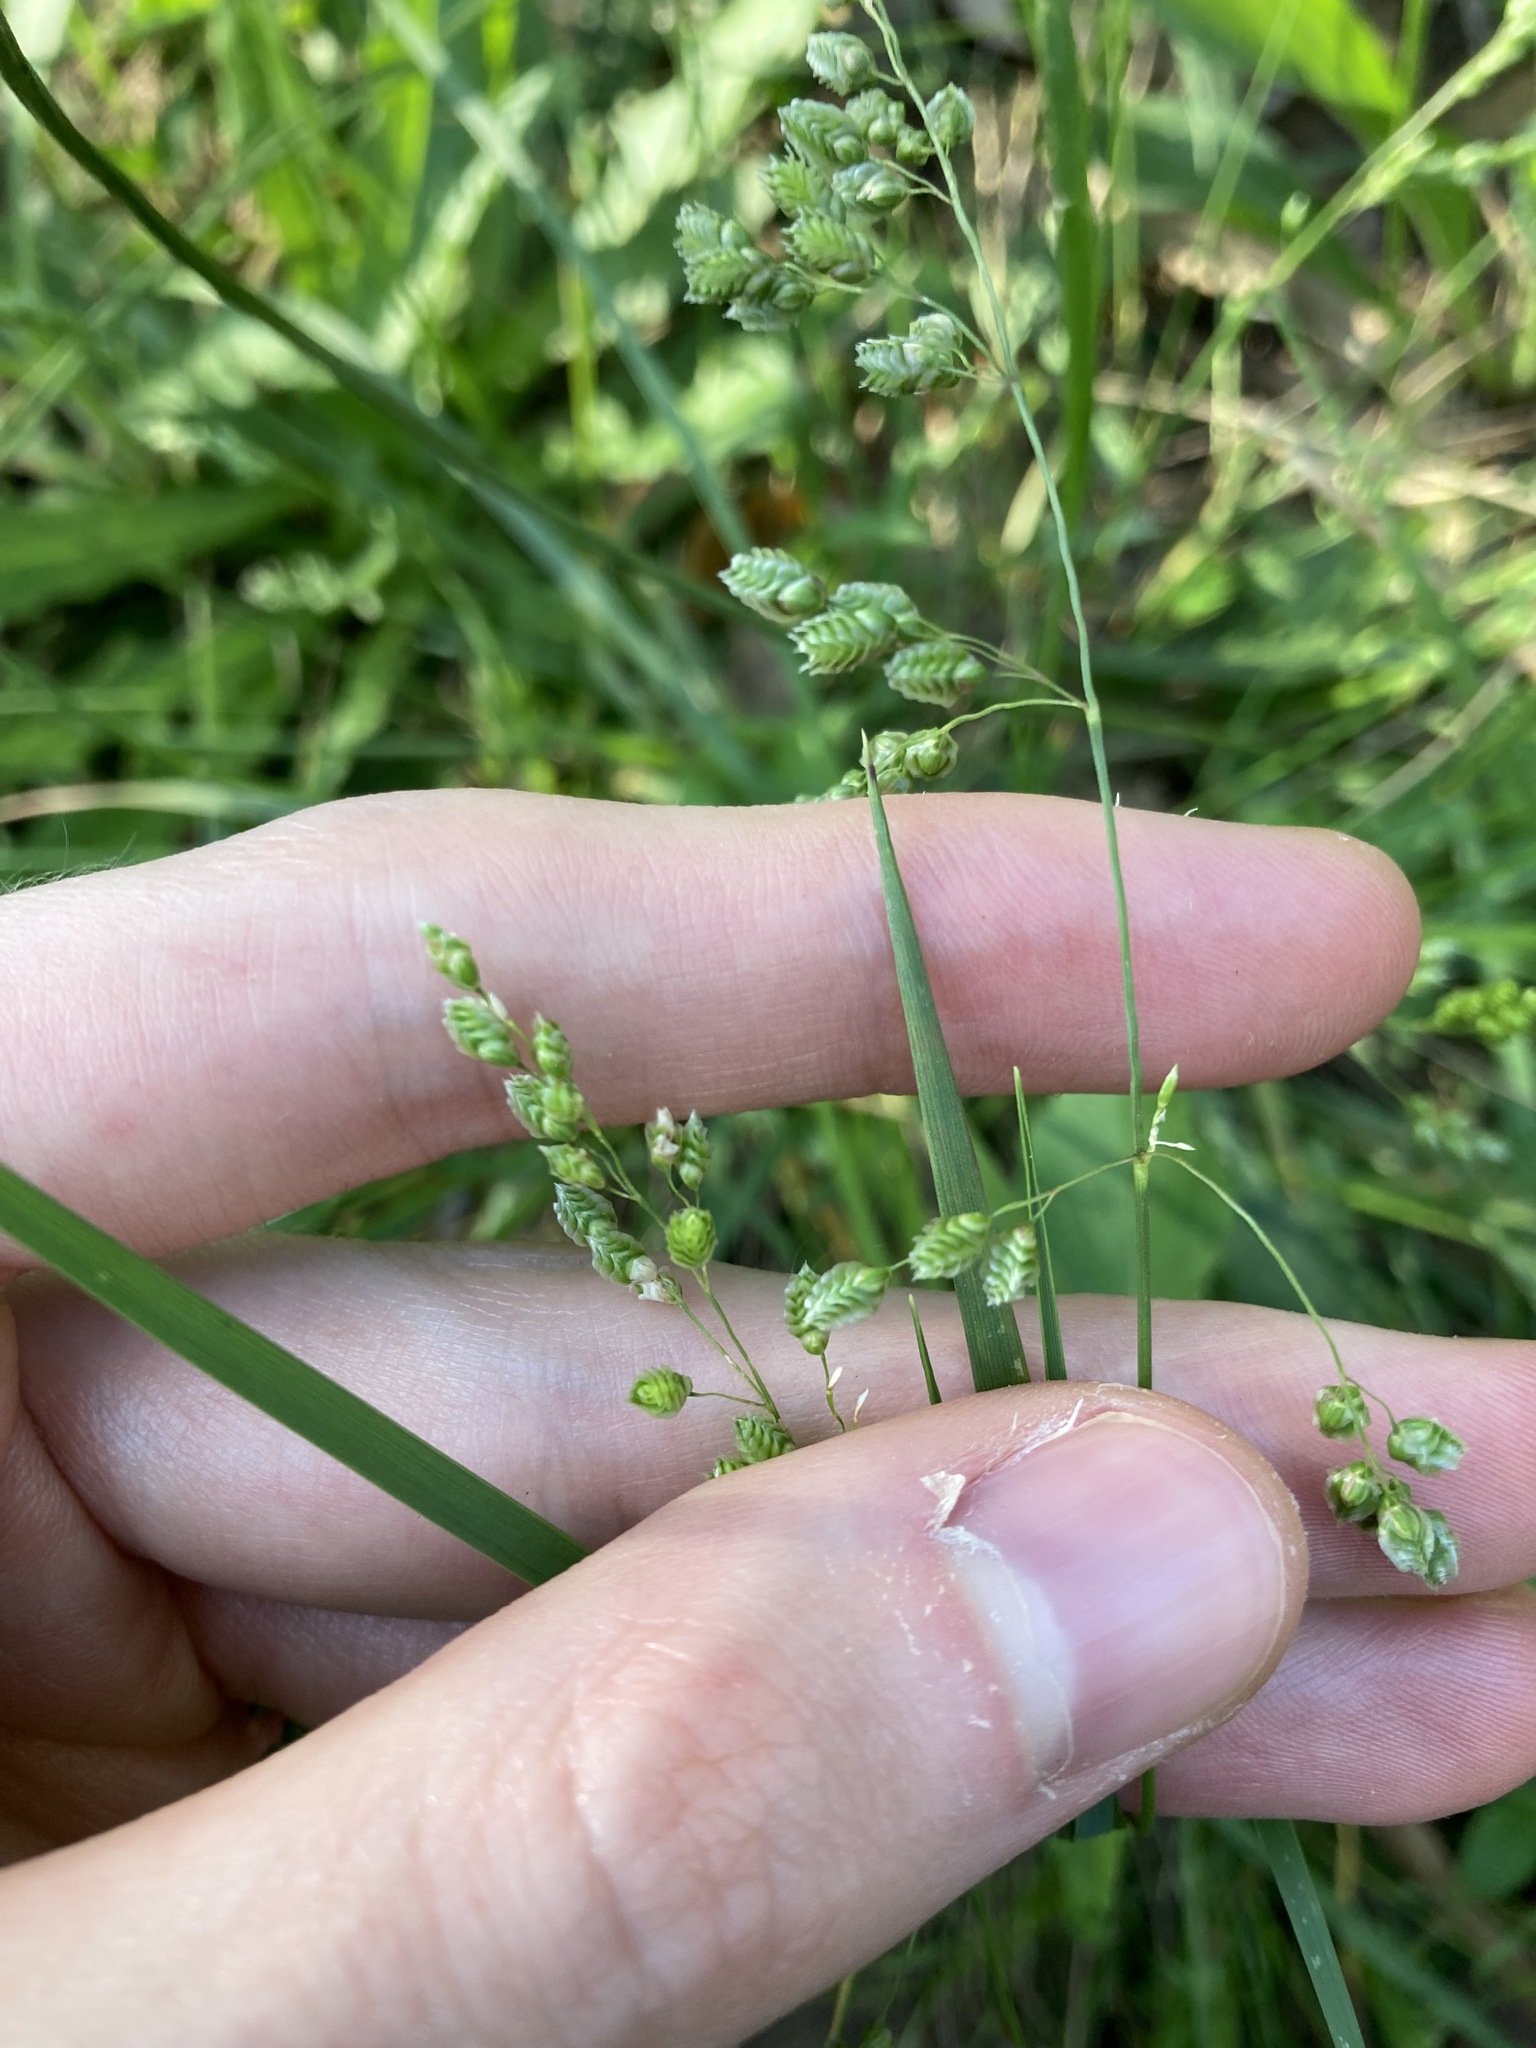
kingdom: Plantae
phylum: Tracheophyta
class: Liliopsida
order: Poales
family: Poaceae
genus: Chascolytrum
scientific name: Chascolytrum subaristatum
